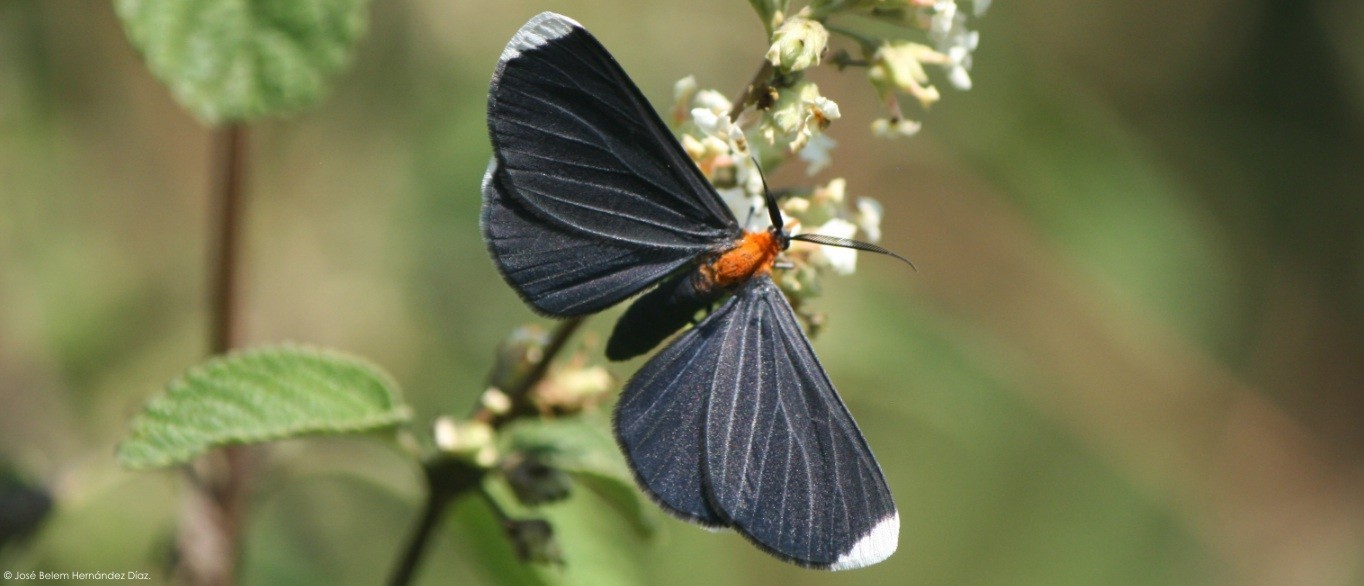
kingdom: Animalia
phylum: Arthropoda
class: Insecta
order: Lepidoptera
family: Geometridae
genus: Melanchroia
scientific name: Melanchroia chephise
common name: White-tipped black
